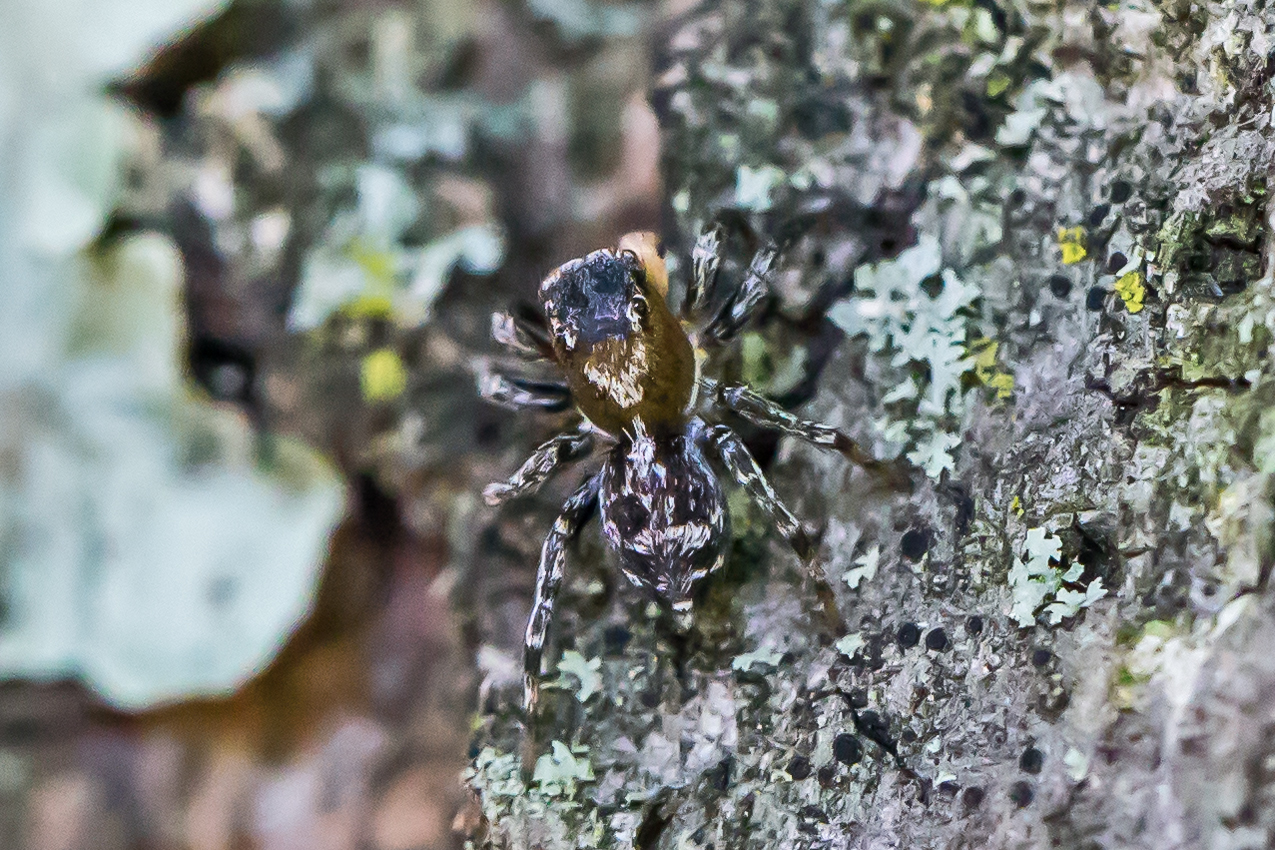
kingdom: Animalia
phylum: Arthropoda
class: Arachnida
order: Araneae
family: Salticidae
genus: Naphrys
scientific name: Naphrys pulex
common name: Flea jumping spider
